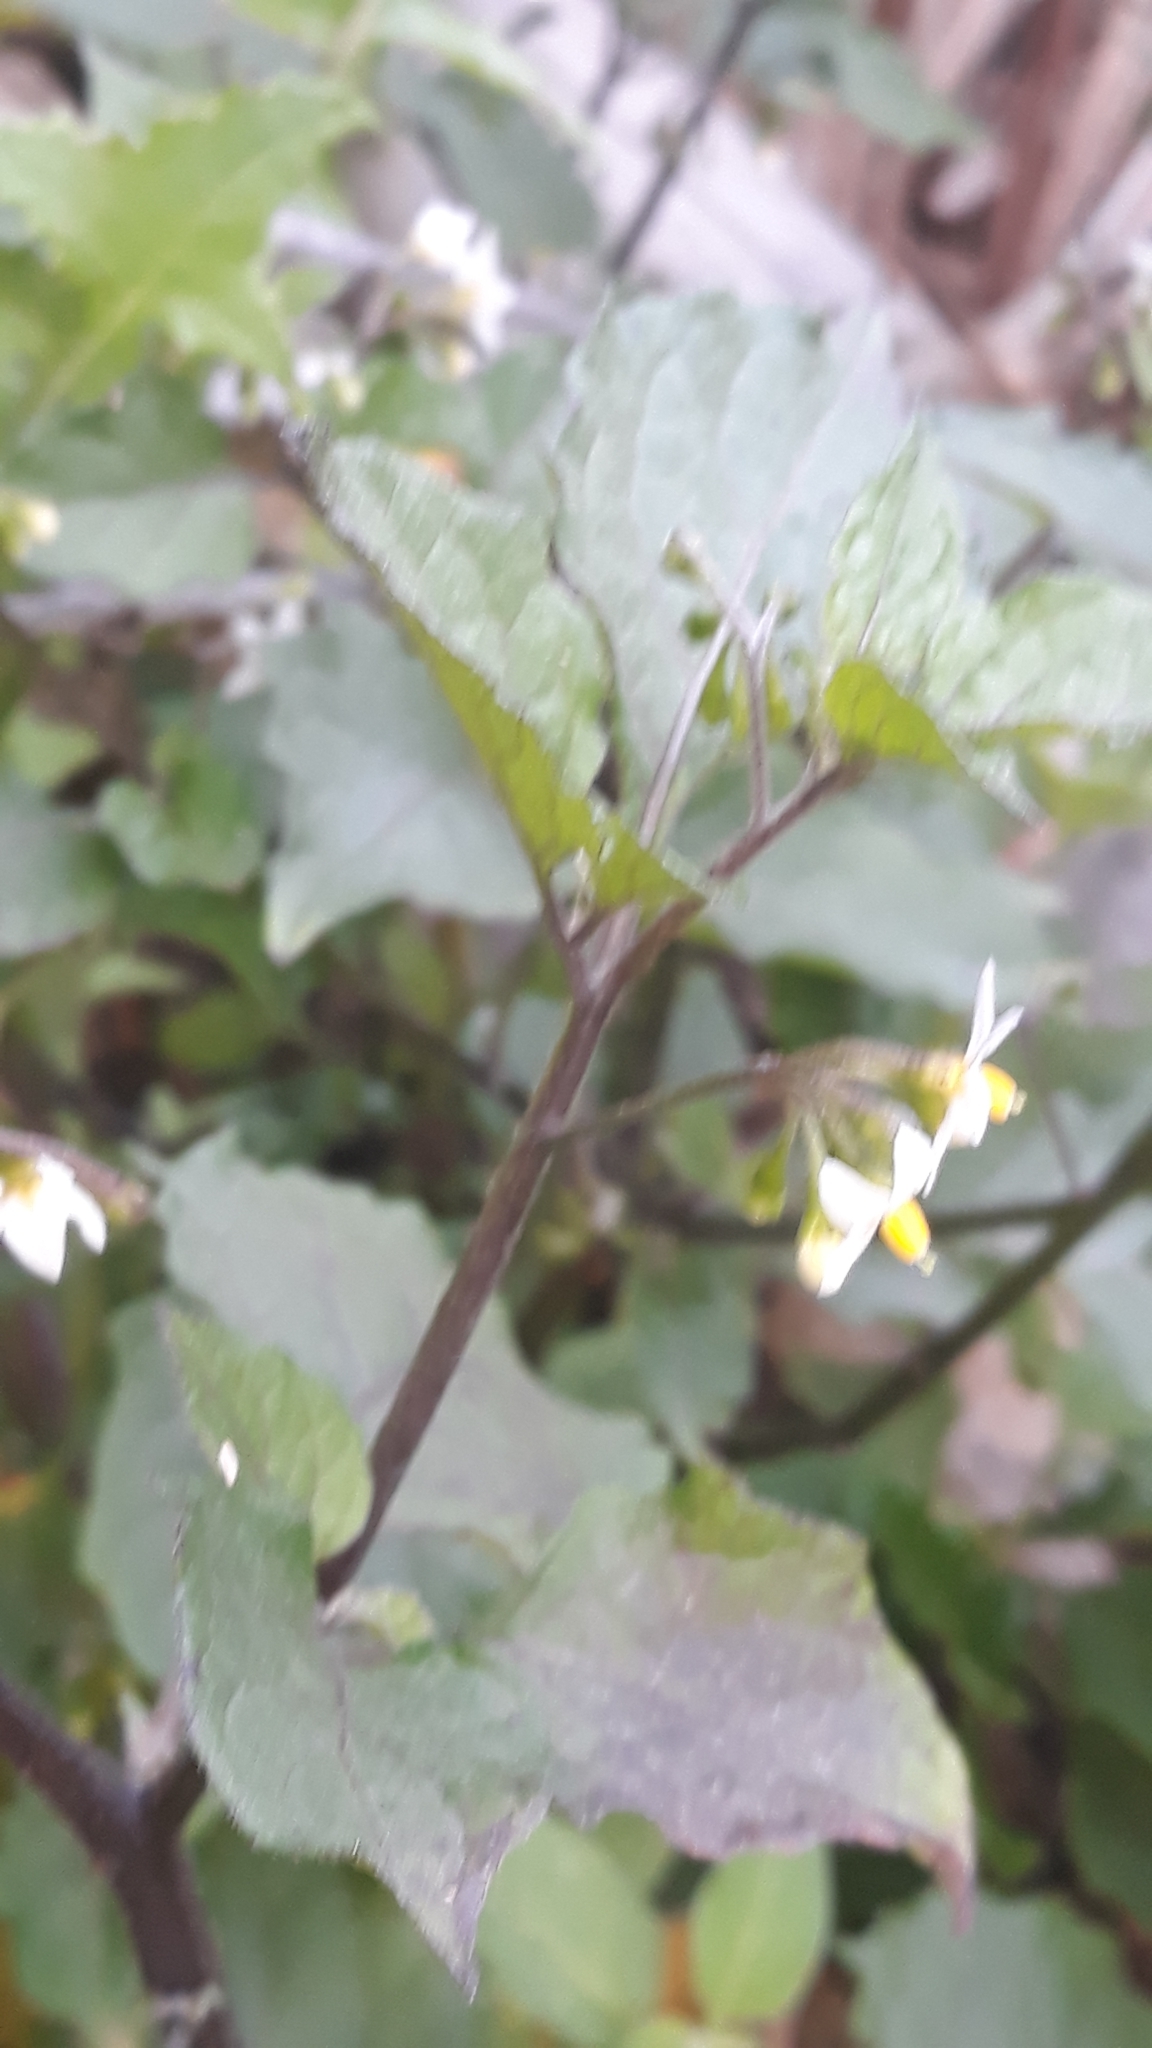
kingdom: Plantae
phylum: Tracheophyta
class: Magnoliopsida
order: Solanales
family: Solanaceae
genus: Solanum
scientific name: Solanum nigrum
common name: Black nightshade
